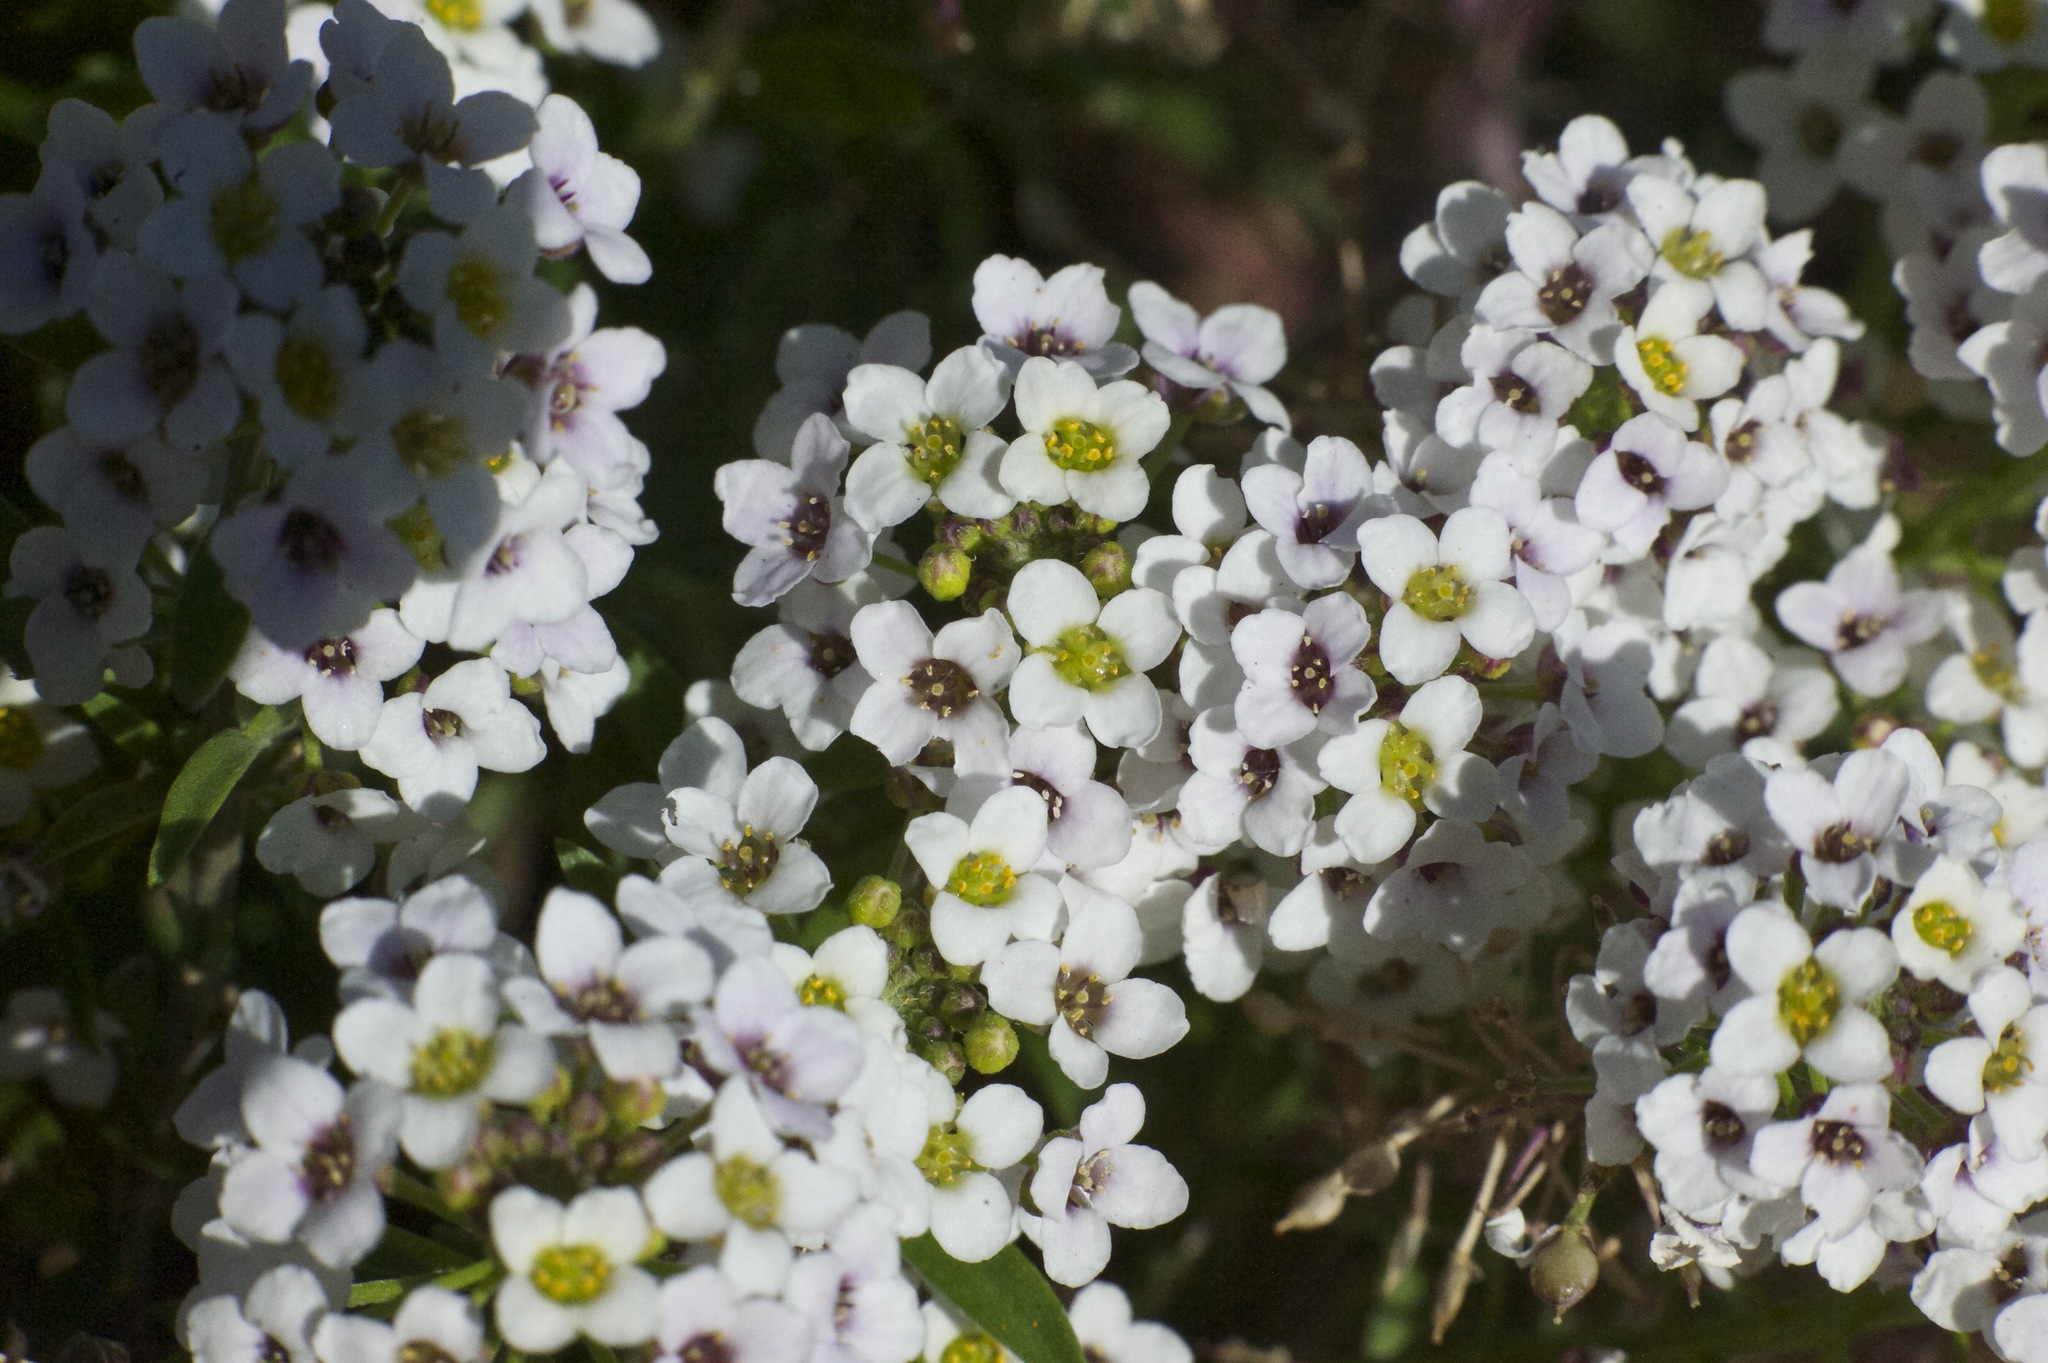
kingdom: Plantae
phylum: Tracheophyta
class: Magnoliopsida
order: Brassicales
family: Brassicaceae
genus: Lobularia
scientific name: Lobularia maritima
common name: Sweet alison
